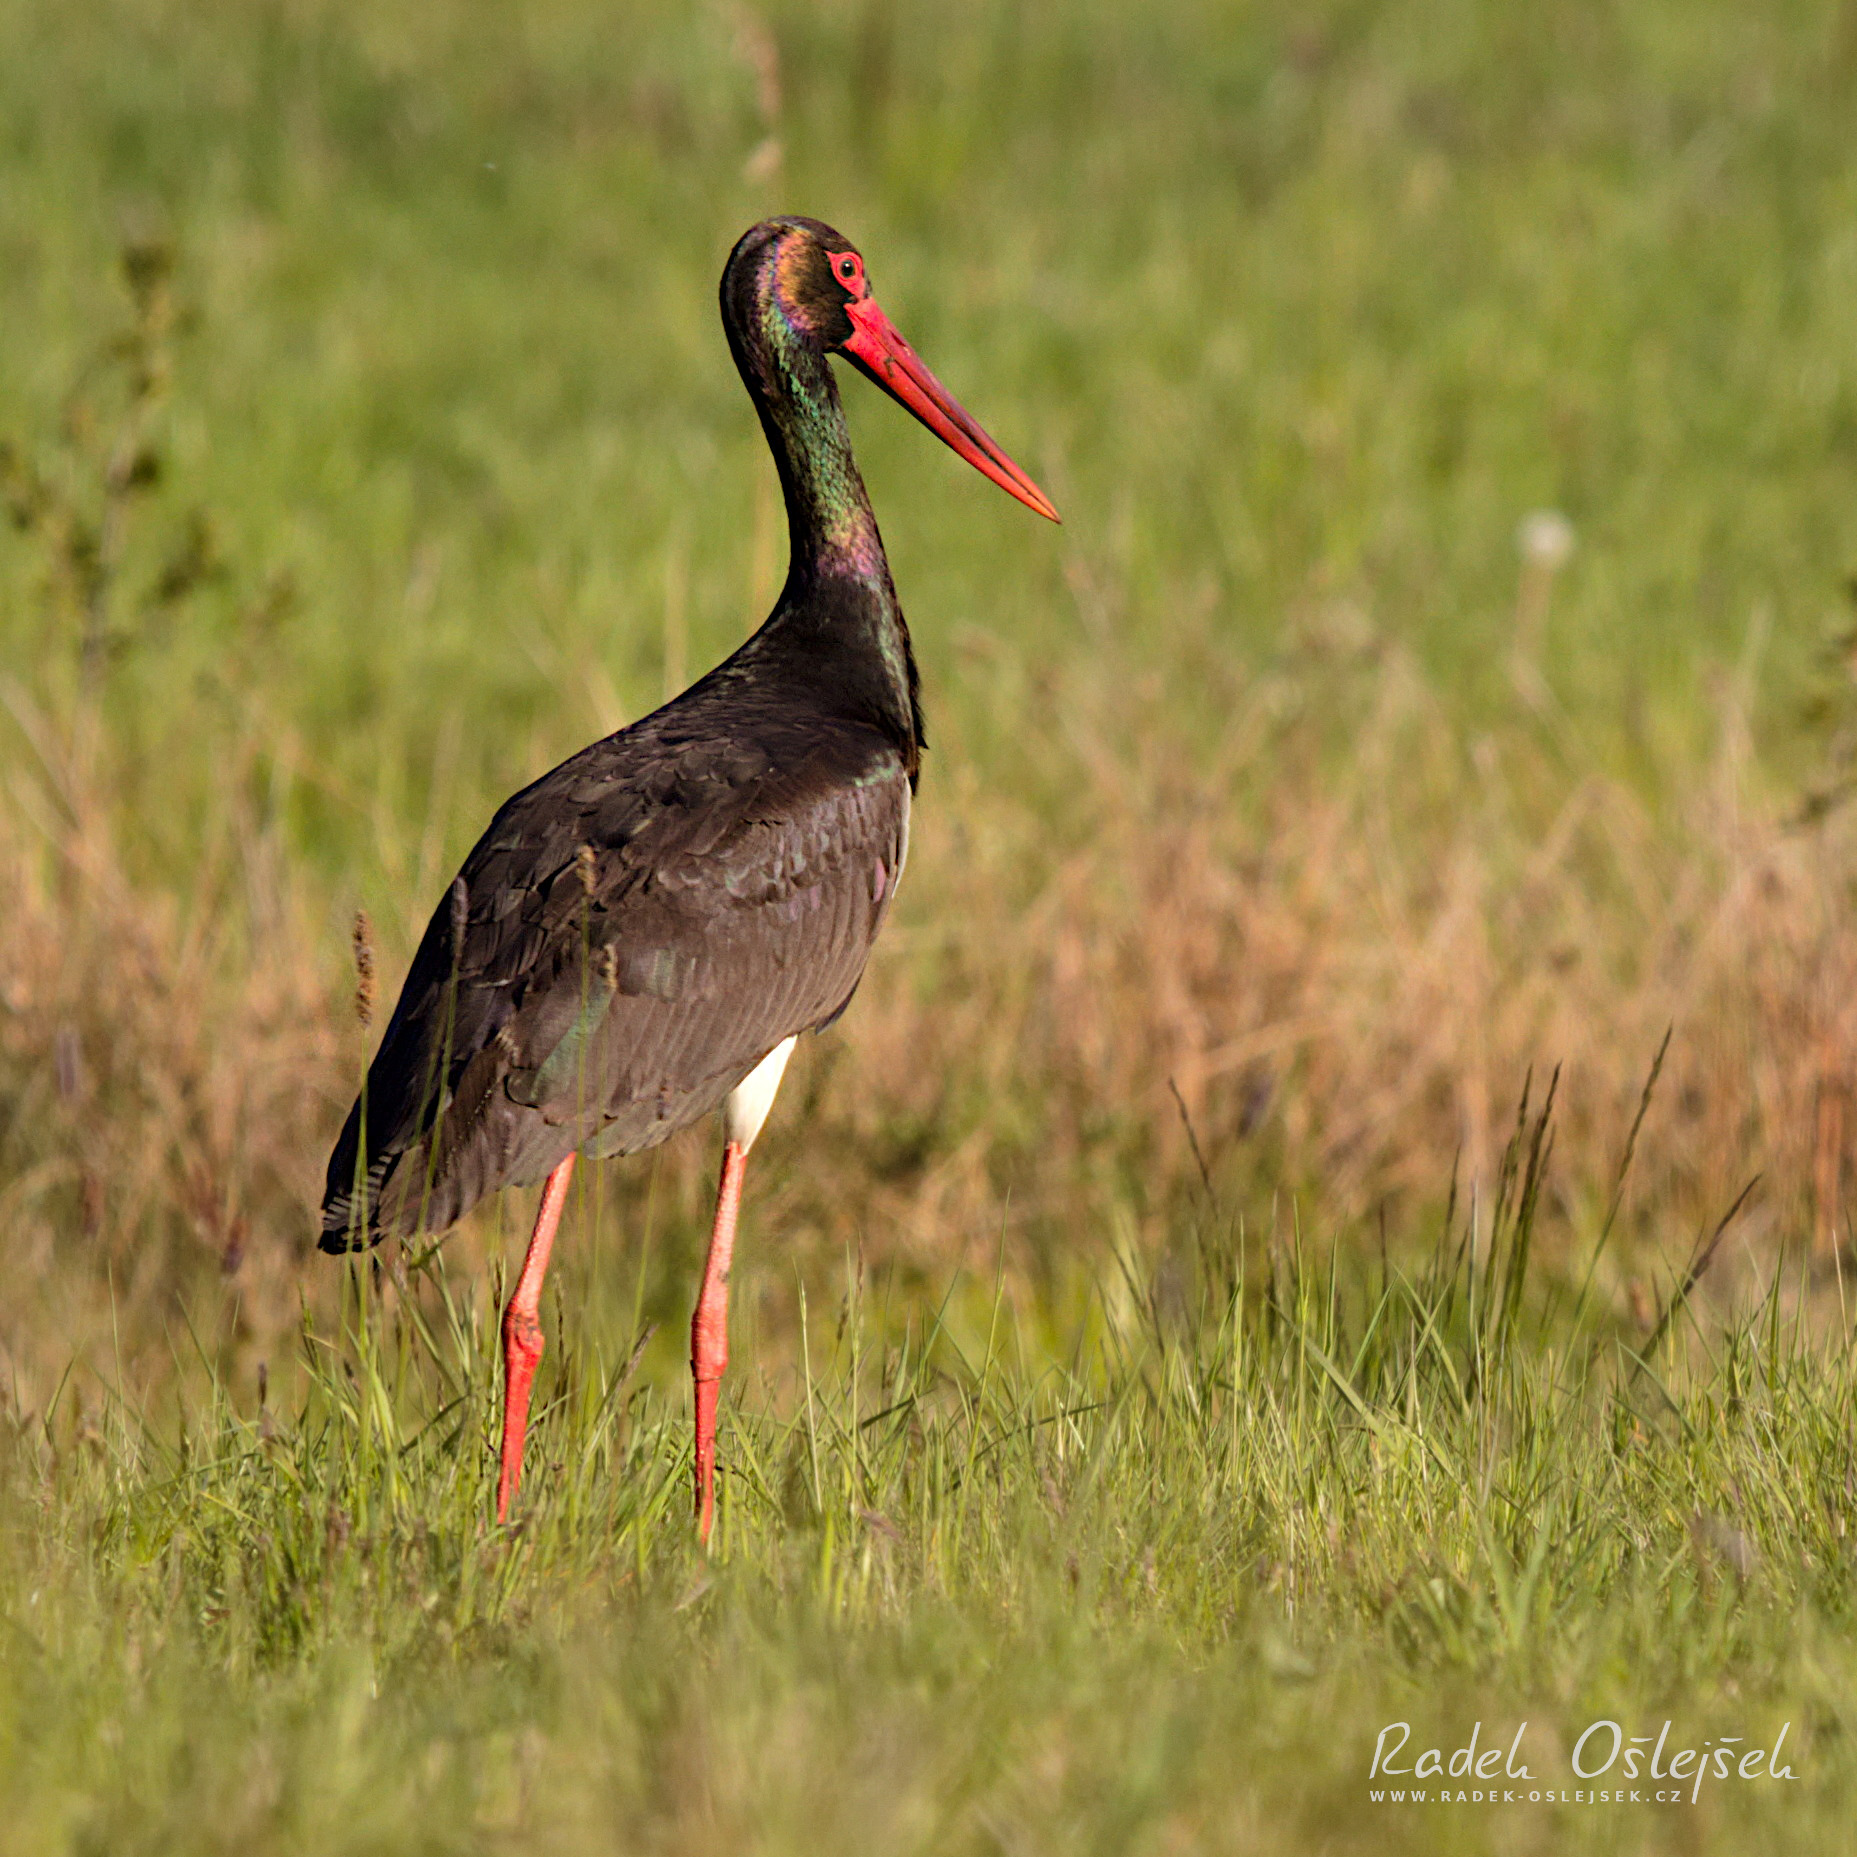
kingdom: Animalia
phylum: Chordata
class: Aves
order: Ciconiiformes
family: Ciconiidae
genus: Ciconia
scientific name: Ciconia nigra
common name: Black stork
